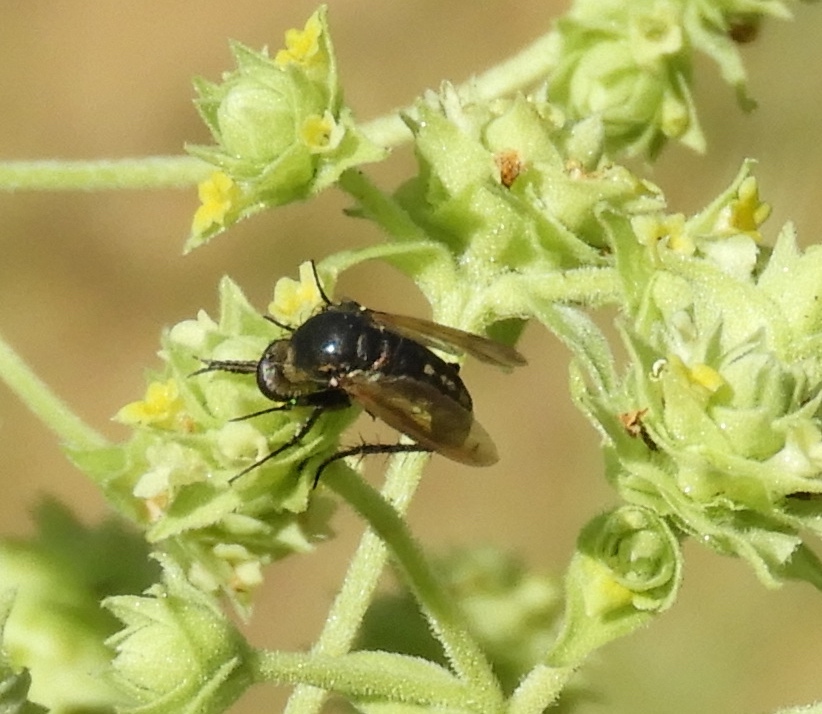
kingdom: Animalia
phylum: Arthropoda
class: Insecta
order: Diptera
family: Bombyliidae
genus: Toxophora
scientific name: Toxophora virgata
